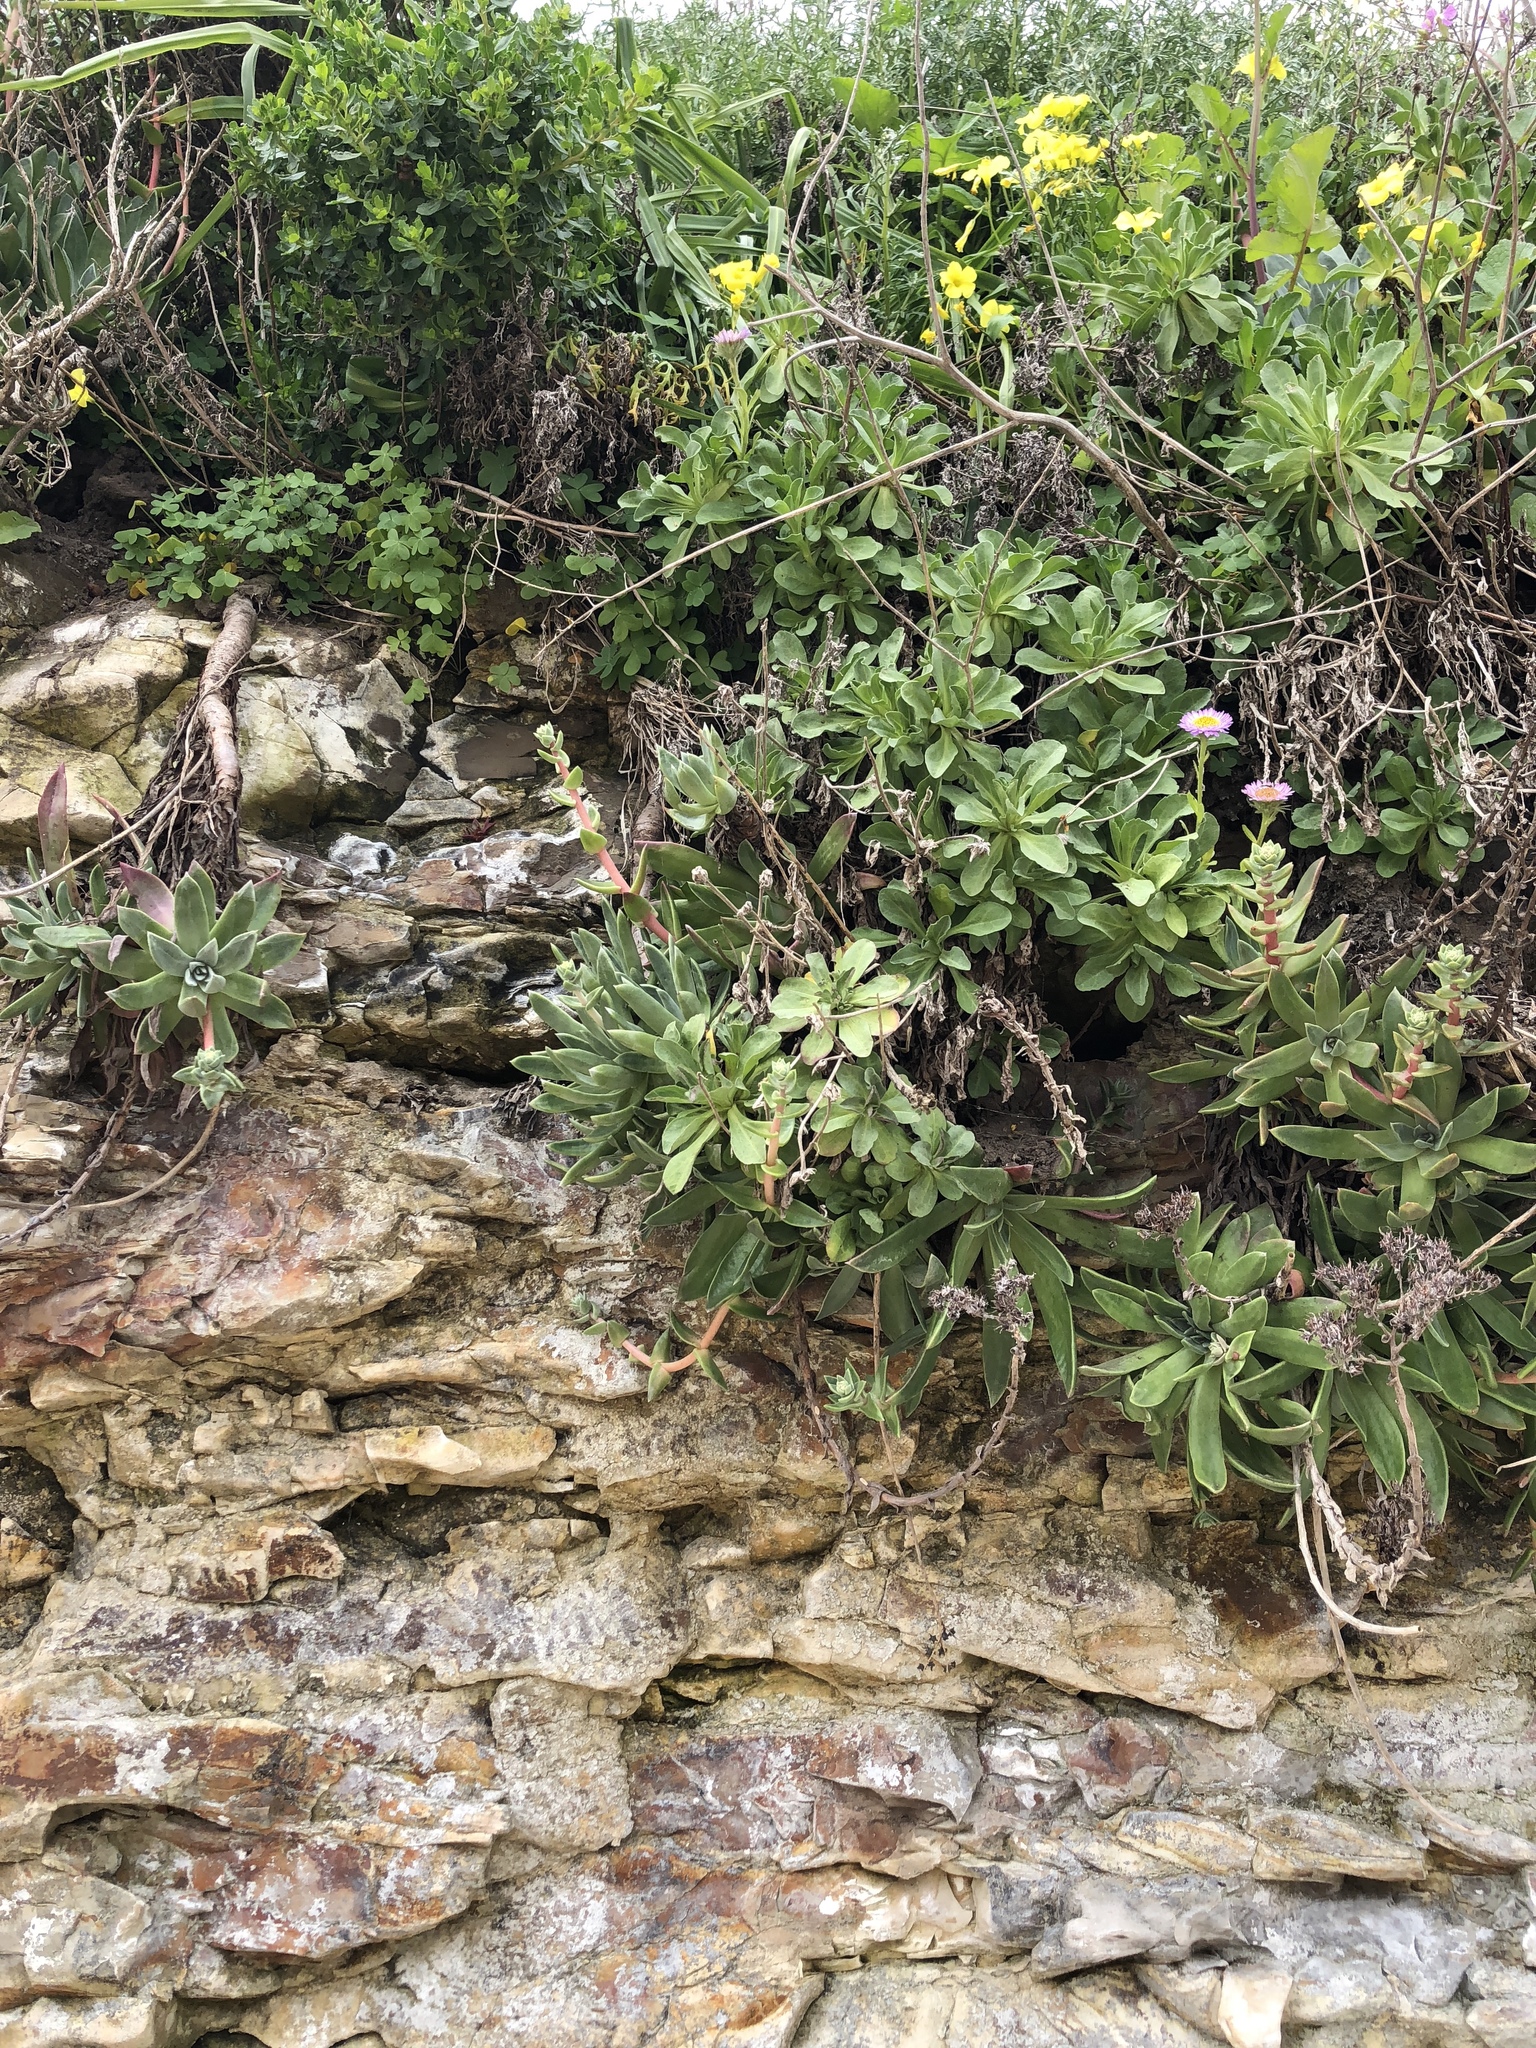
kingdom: Plantae
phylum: Tracheophyta
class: Magnoliopsida
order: Asterales
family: Asteraceae
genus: Erigeron
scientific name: Erigeron glaucus
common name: Seaside daisy
